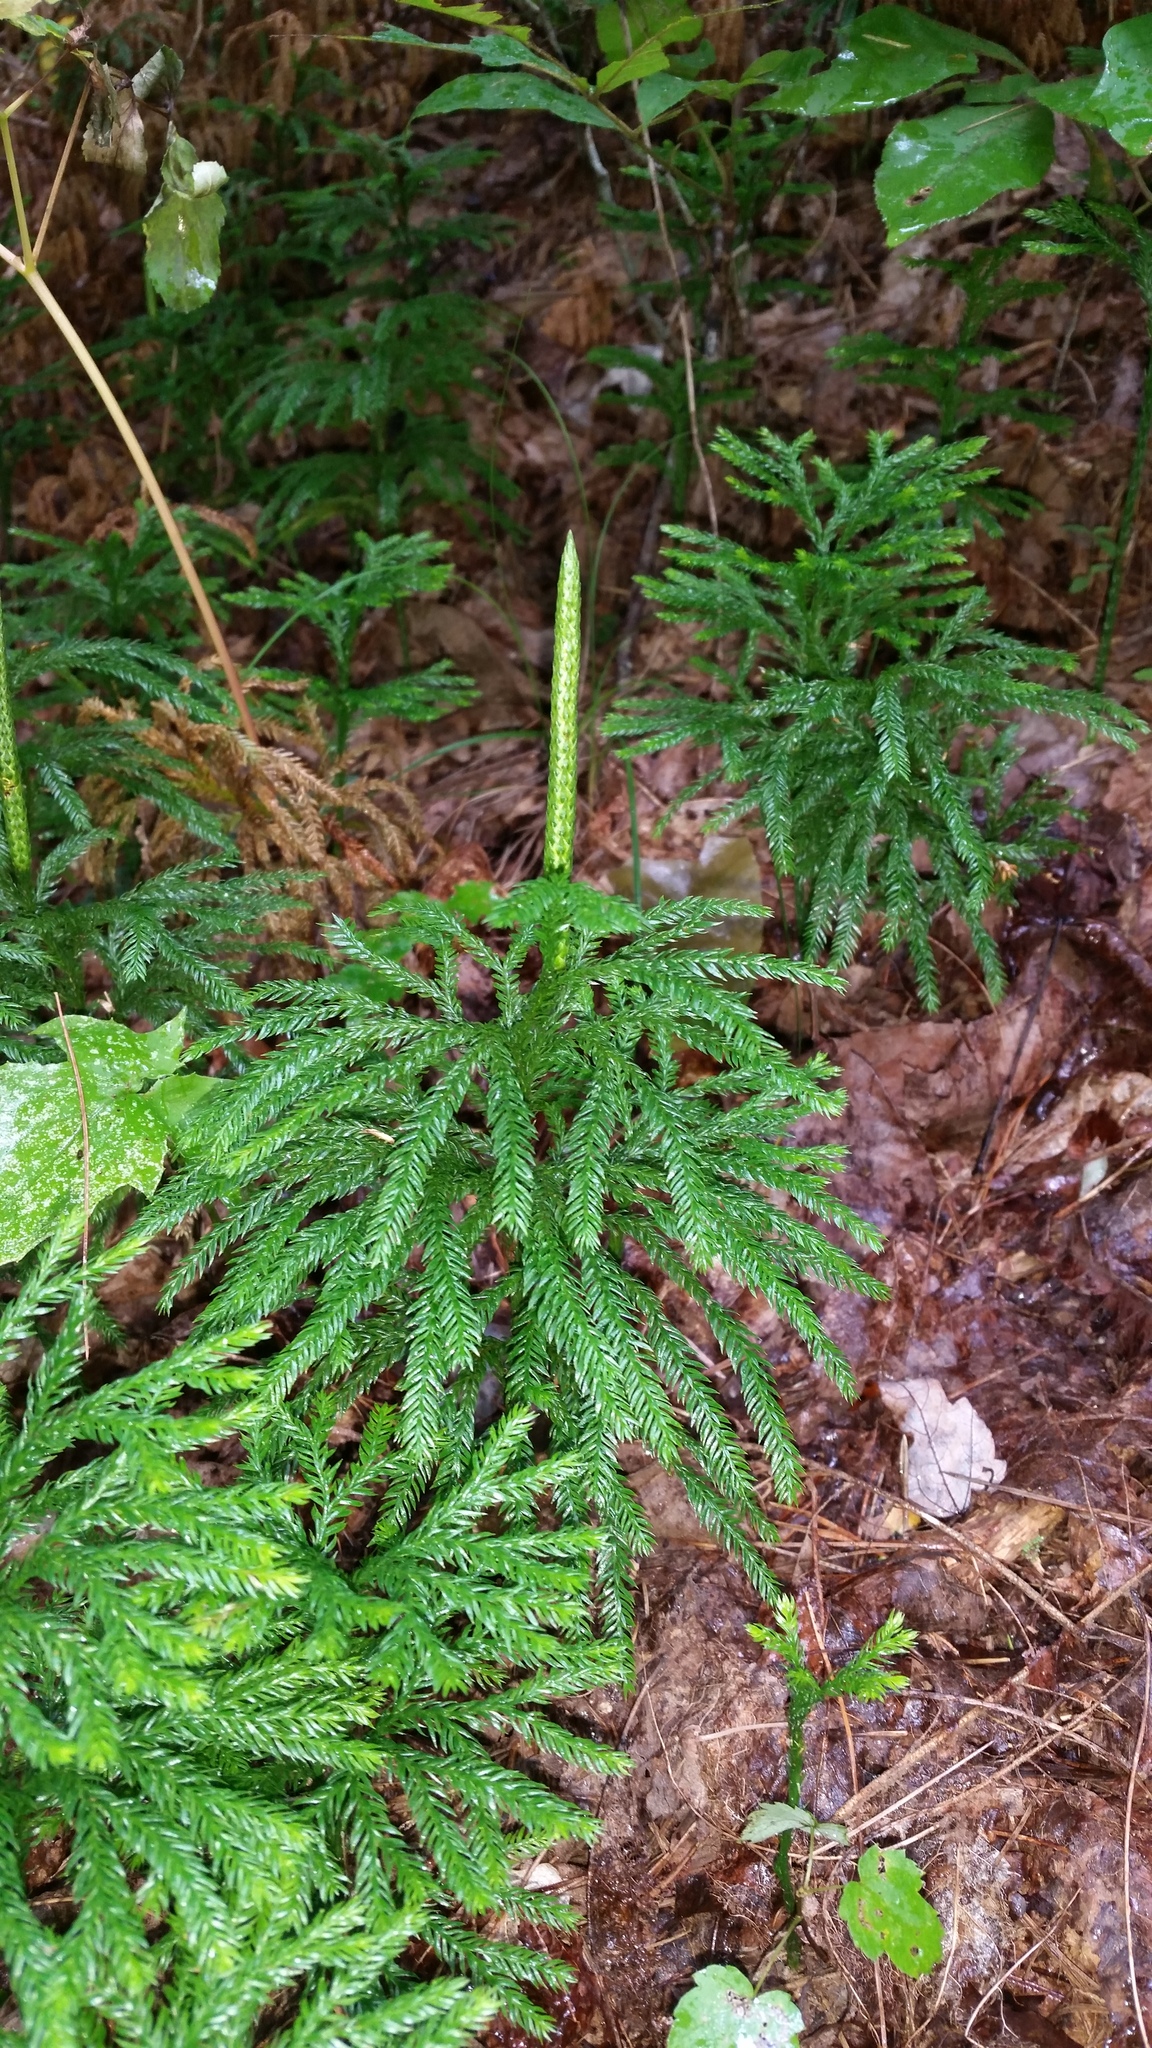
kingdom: Plantae
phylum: Tracheophyta
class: Lycopodiopsida
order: Lycopodiales
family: Lycopodiaceae
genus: Dendrolycopodium
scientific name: Dendrolycopodium obscurum
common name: Common ground-pine
